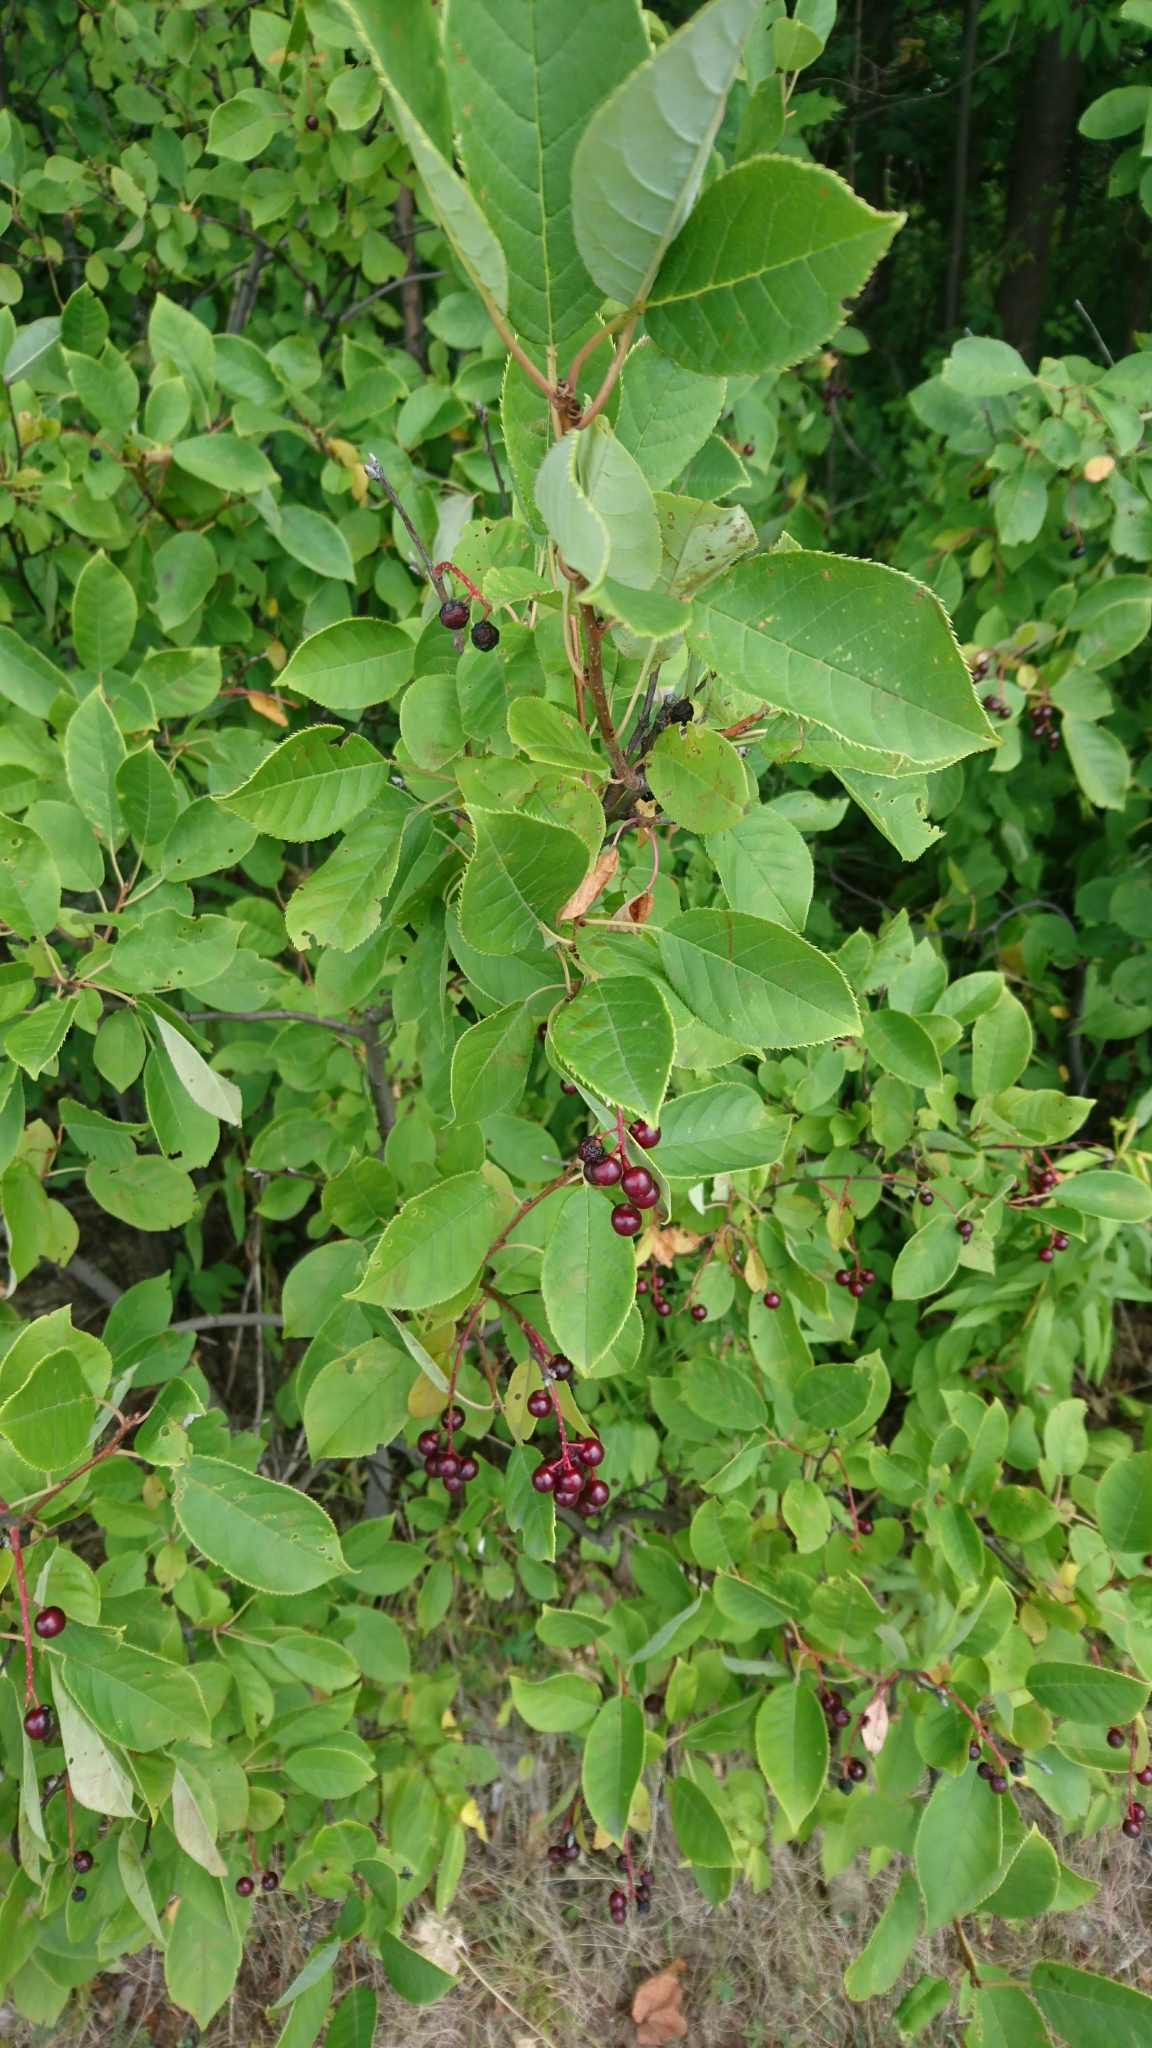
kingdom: Plantae
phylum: Tracheophyta
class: Magnoliopsida
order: Rosales
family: Rosaceae
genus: Prunus
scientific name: Prunus virginiana
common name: Chokecherry
